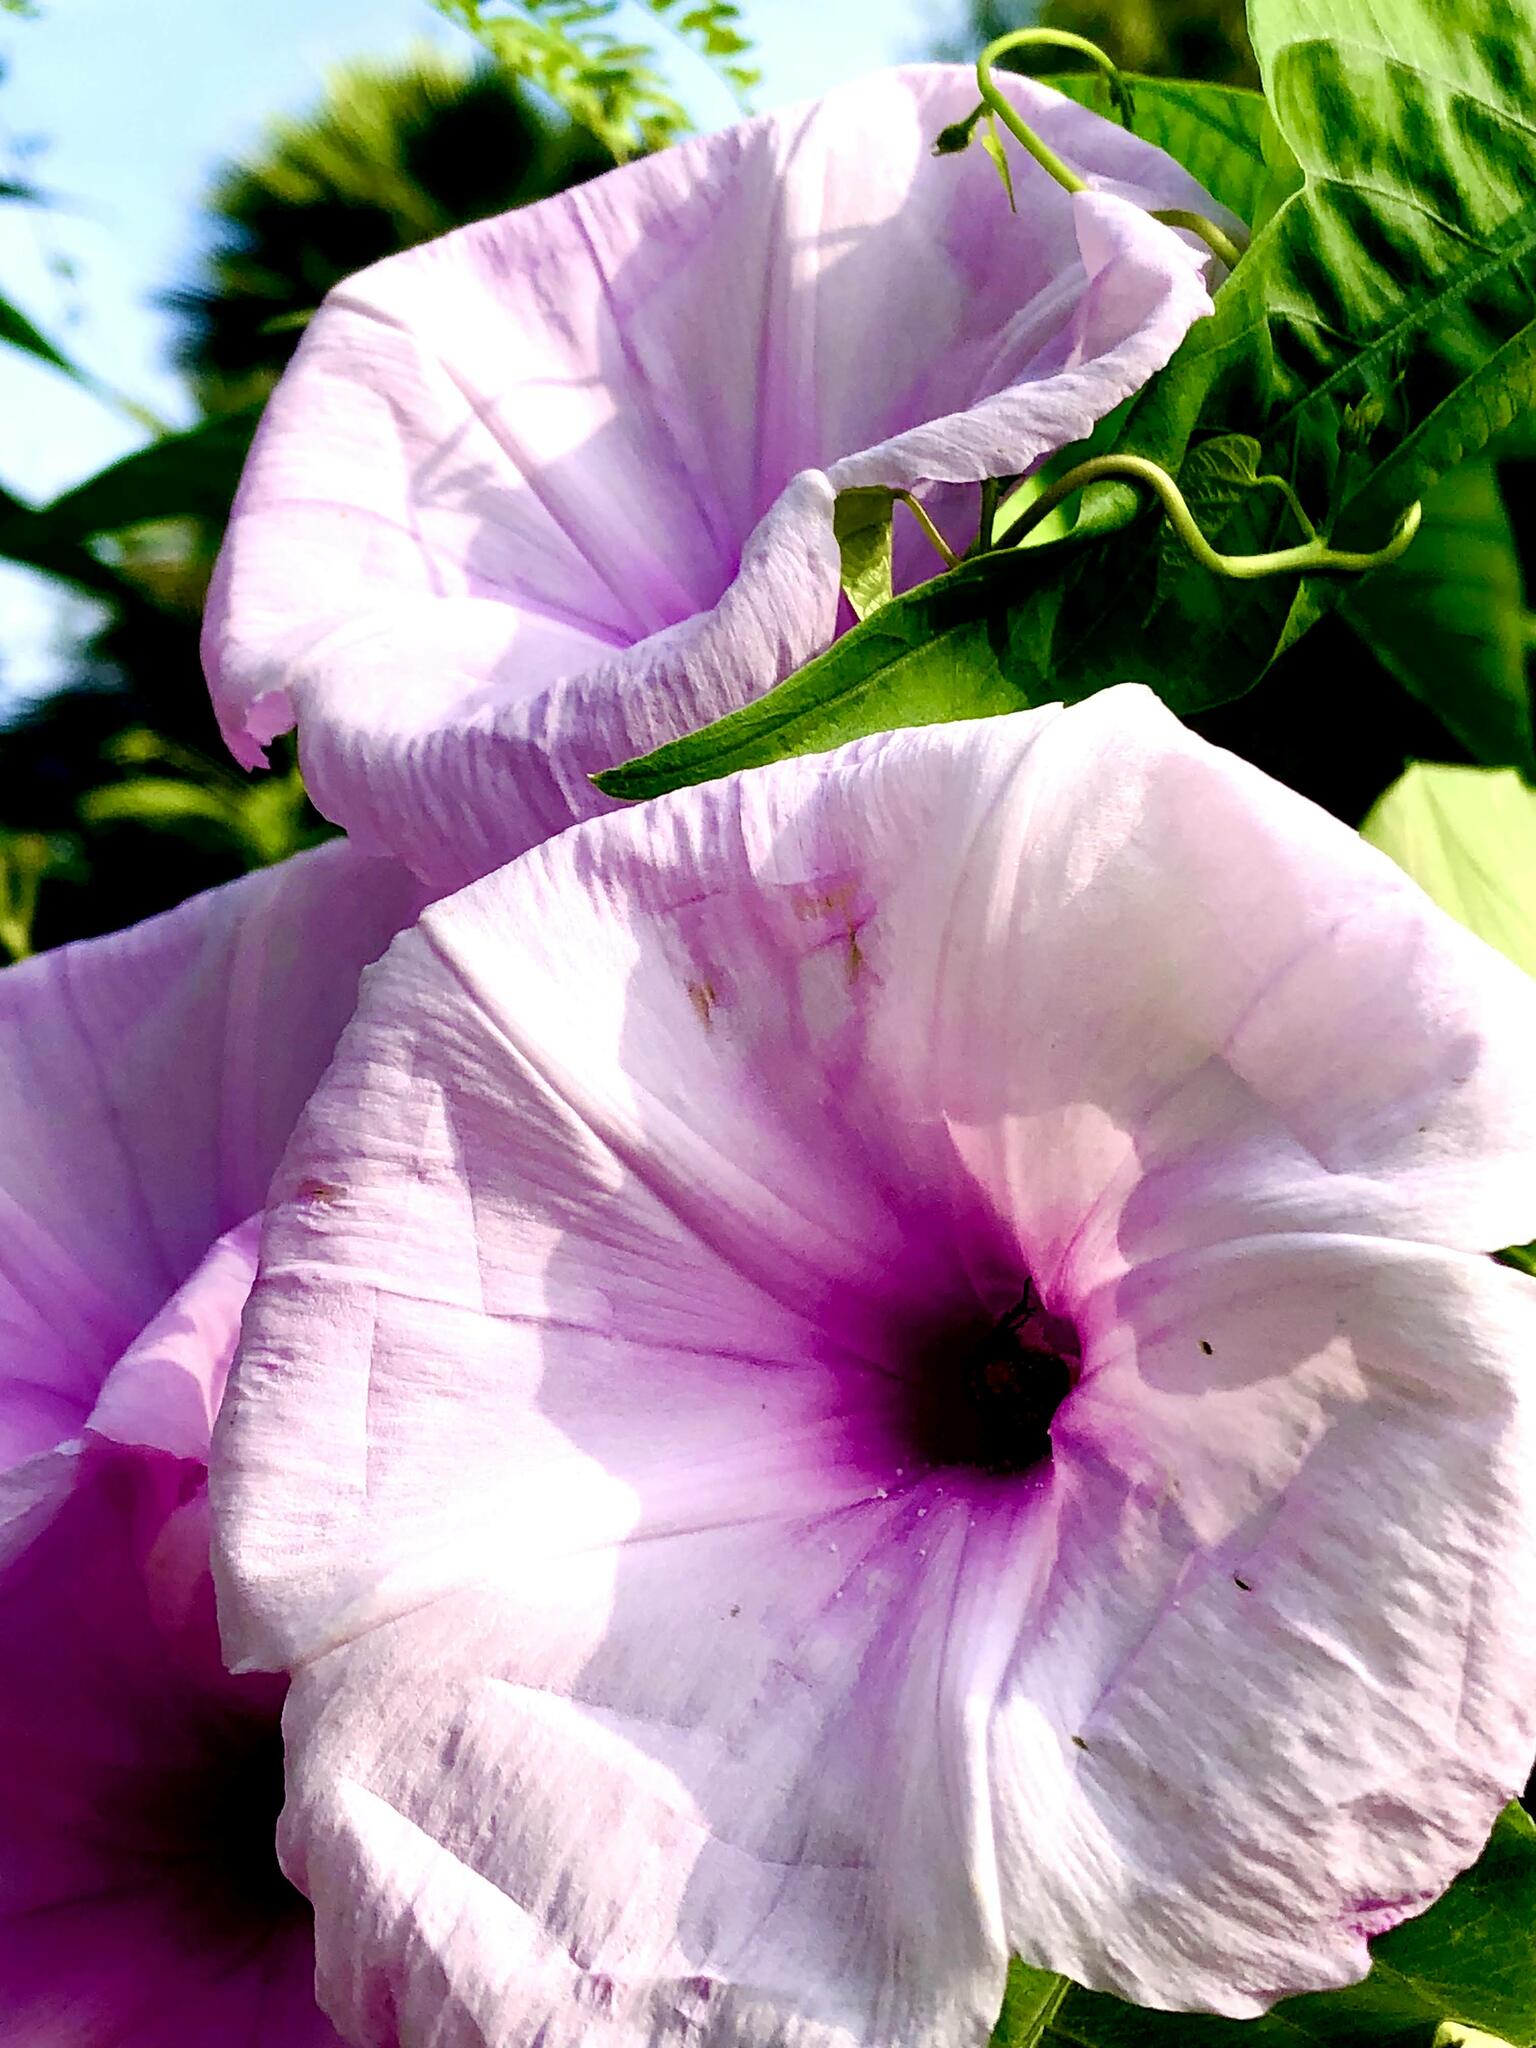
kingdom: Plantae
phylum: Tracheophyta
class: Magnoliopsida
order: Solanales
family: Convolvulaceae
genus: Ipomoea
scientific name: Ipomoea carnea
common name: Morning-glory
